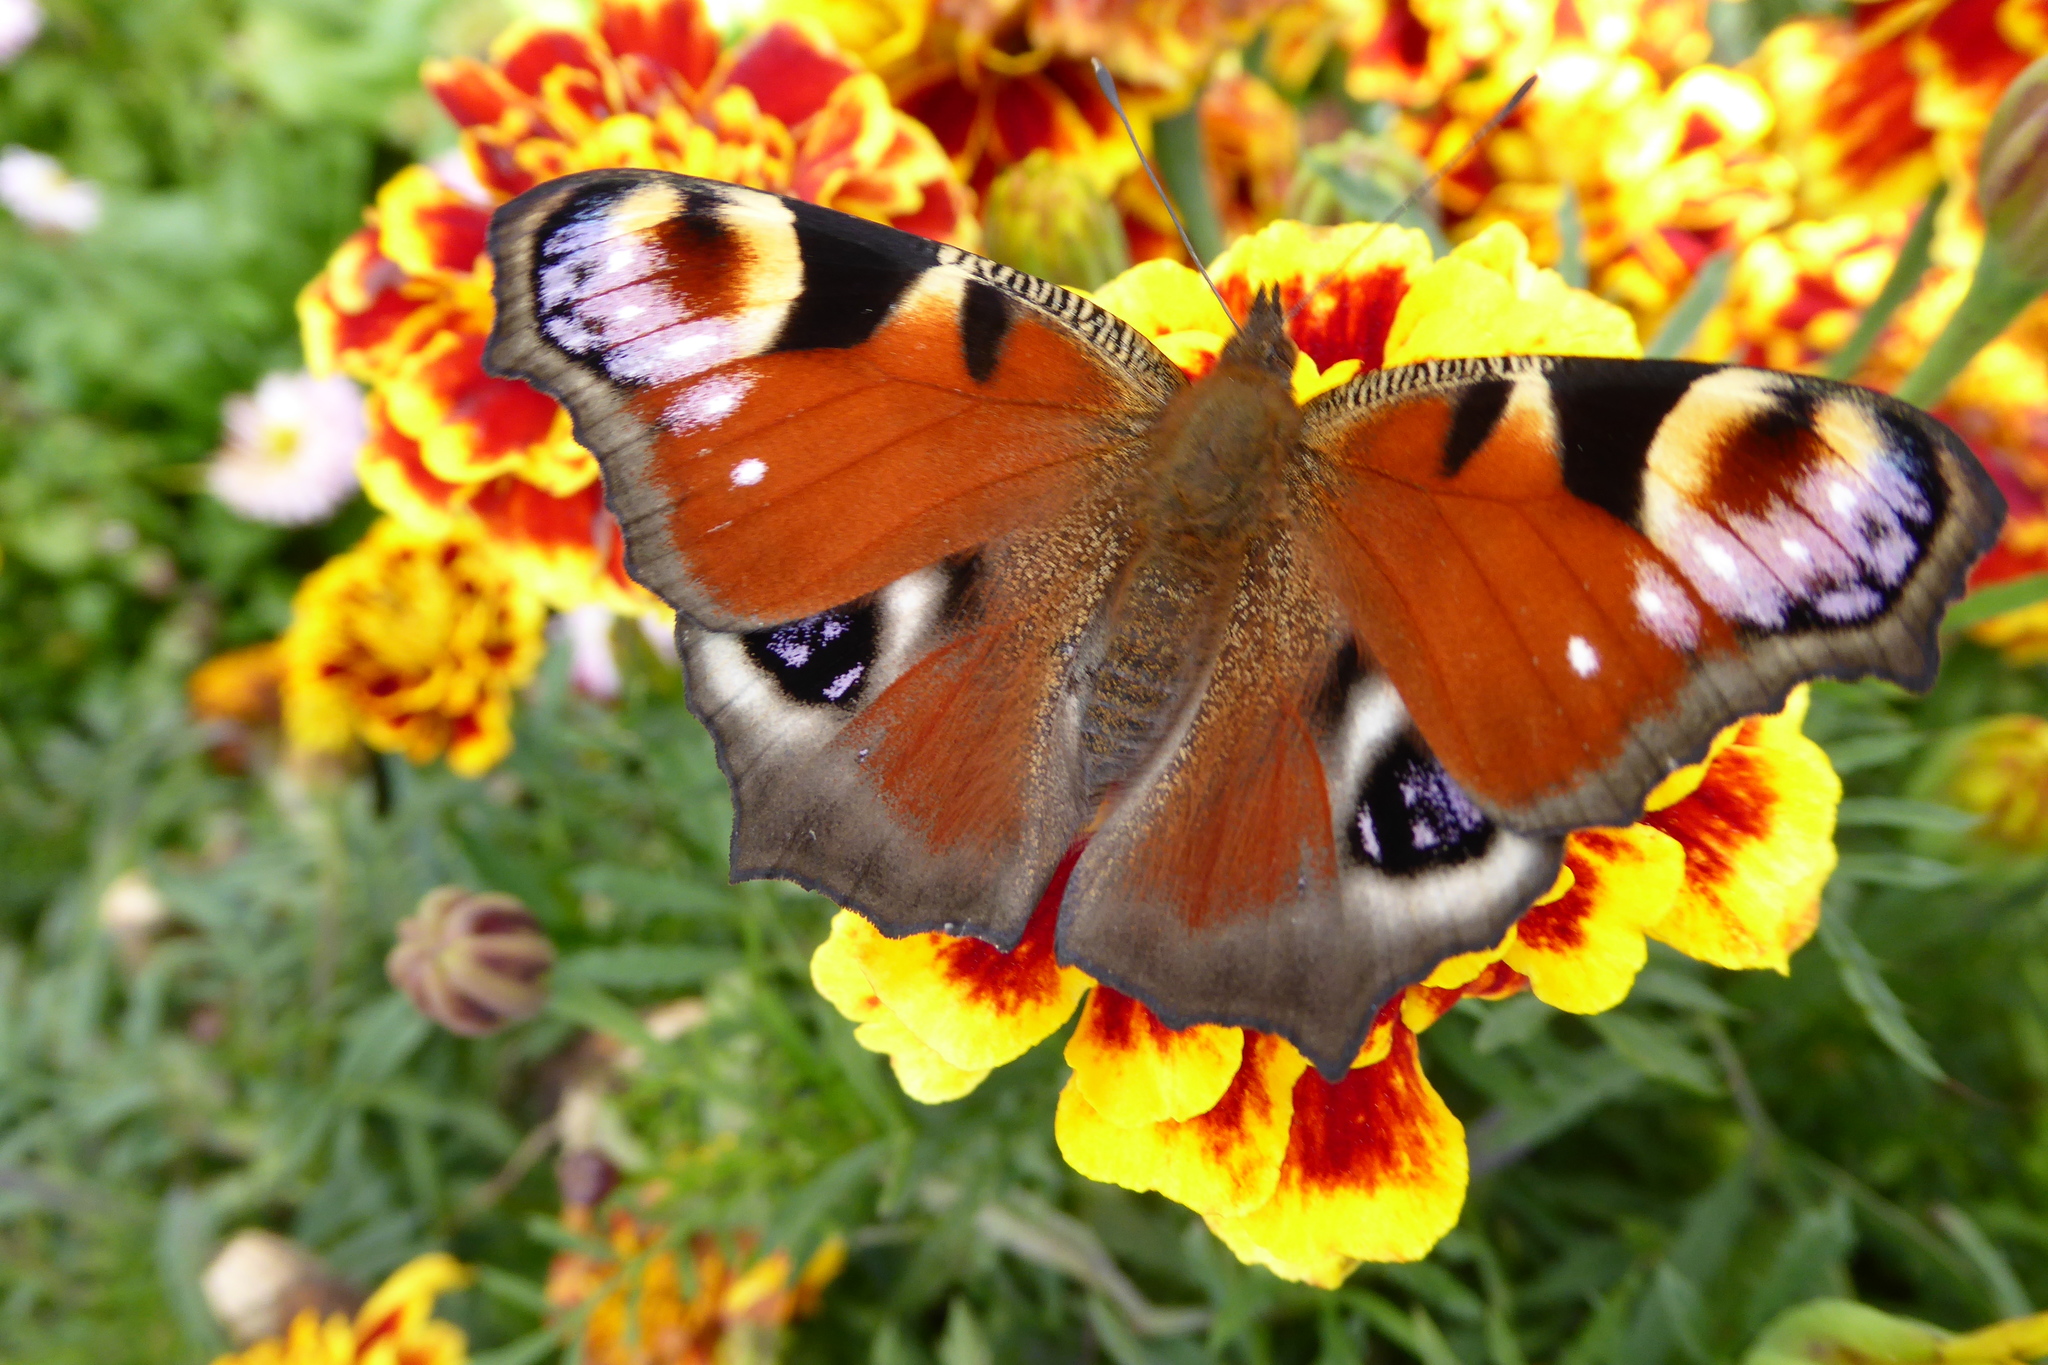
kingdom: Animalia
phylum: Arthropoda
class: Insecta
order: Lepidoptera
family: Nymphalidae
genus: Aglais
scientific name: Aglais io
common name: Peacock
